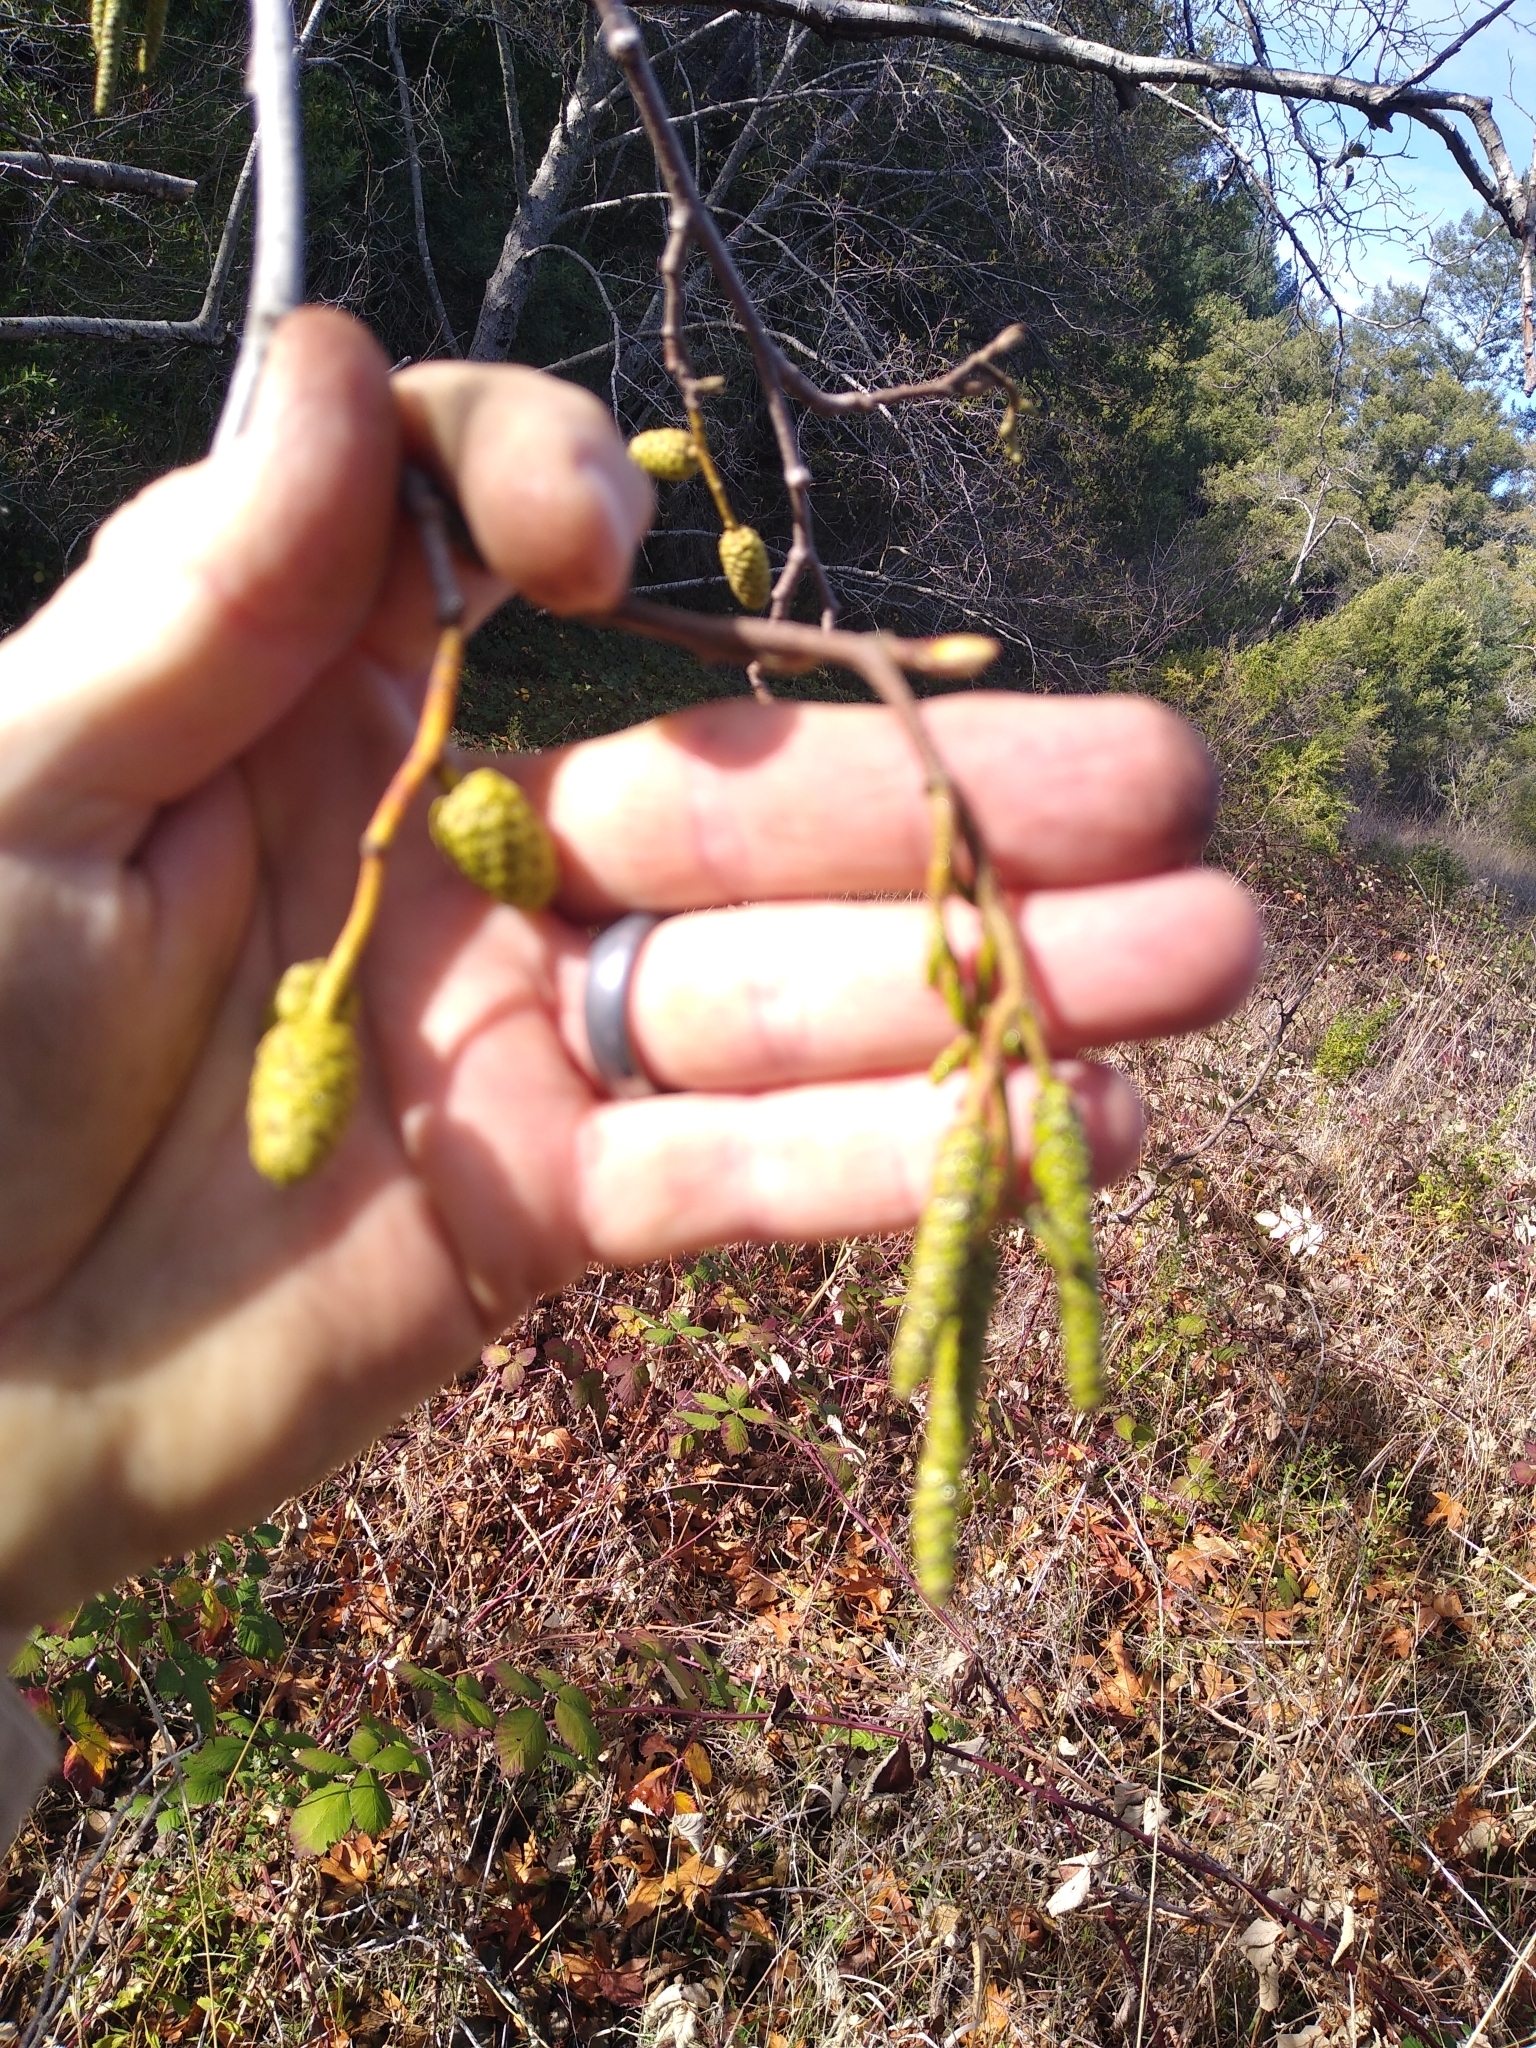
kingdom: Plantae
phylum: Tracheophyta
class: Magnoliopsida
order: Fagales
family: Betulaceae
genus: Alnus
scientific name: Alnus rhombifolia
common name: California alder
